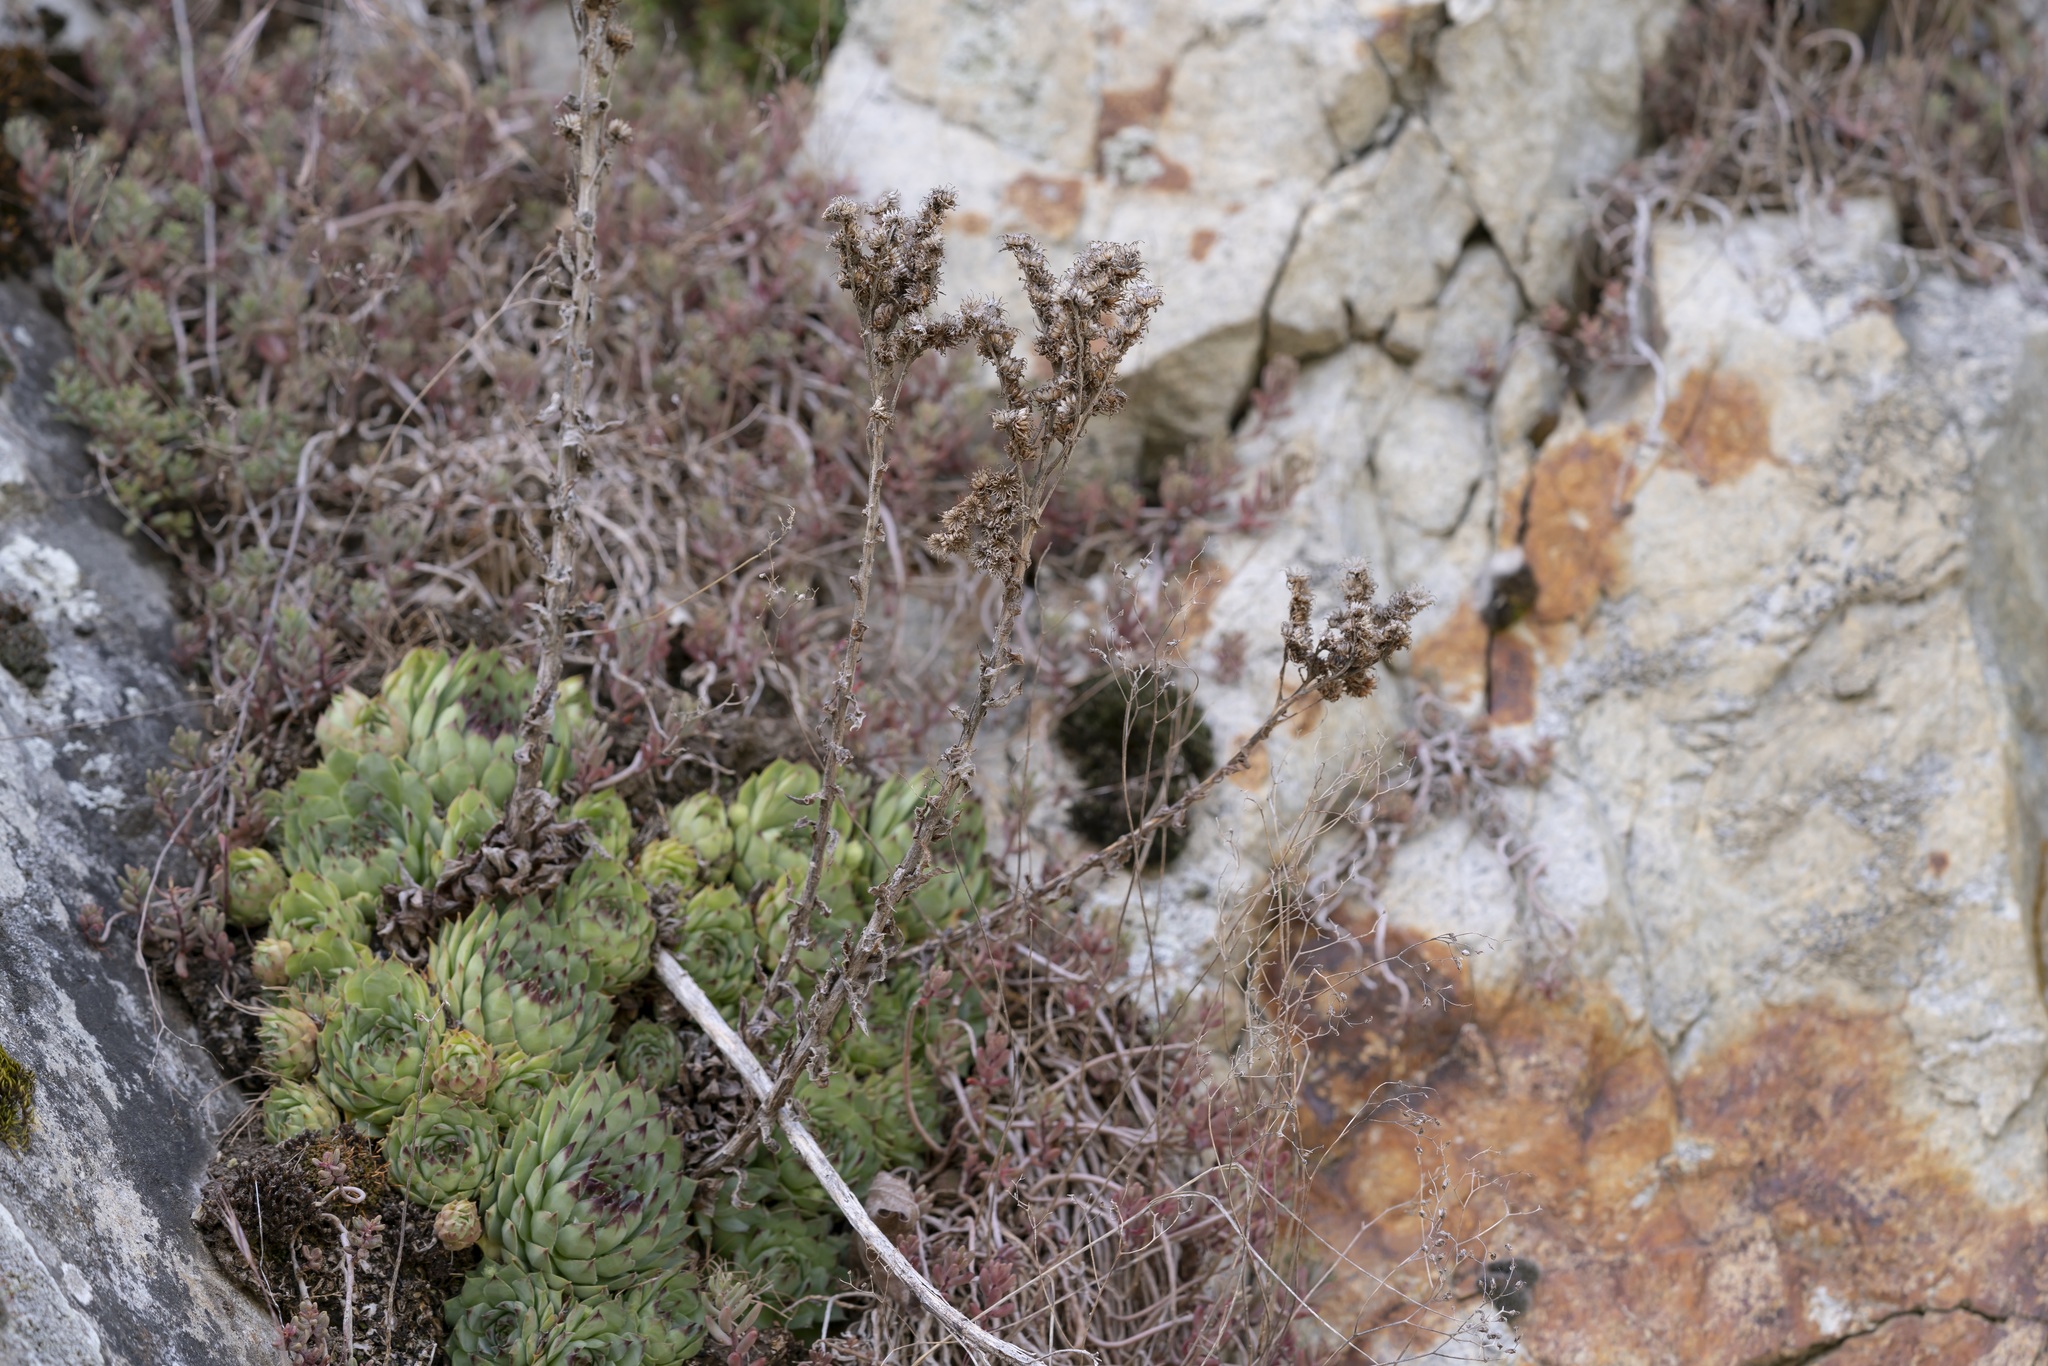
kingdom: Plantae
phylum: Tracheophyta
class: Magnoliopsida
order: Saxifragales
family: Crassulaceae
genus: Sempervivum
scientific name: Sempervivum tectorum
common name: House-leek
